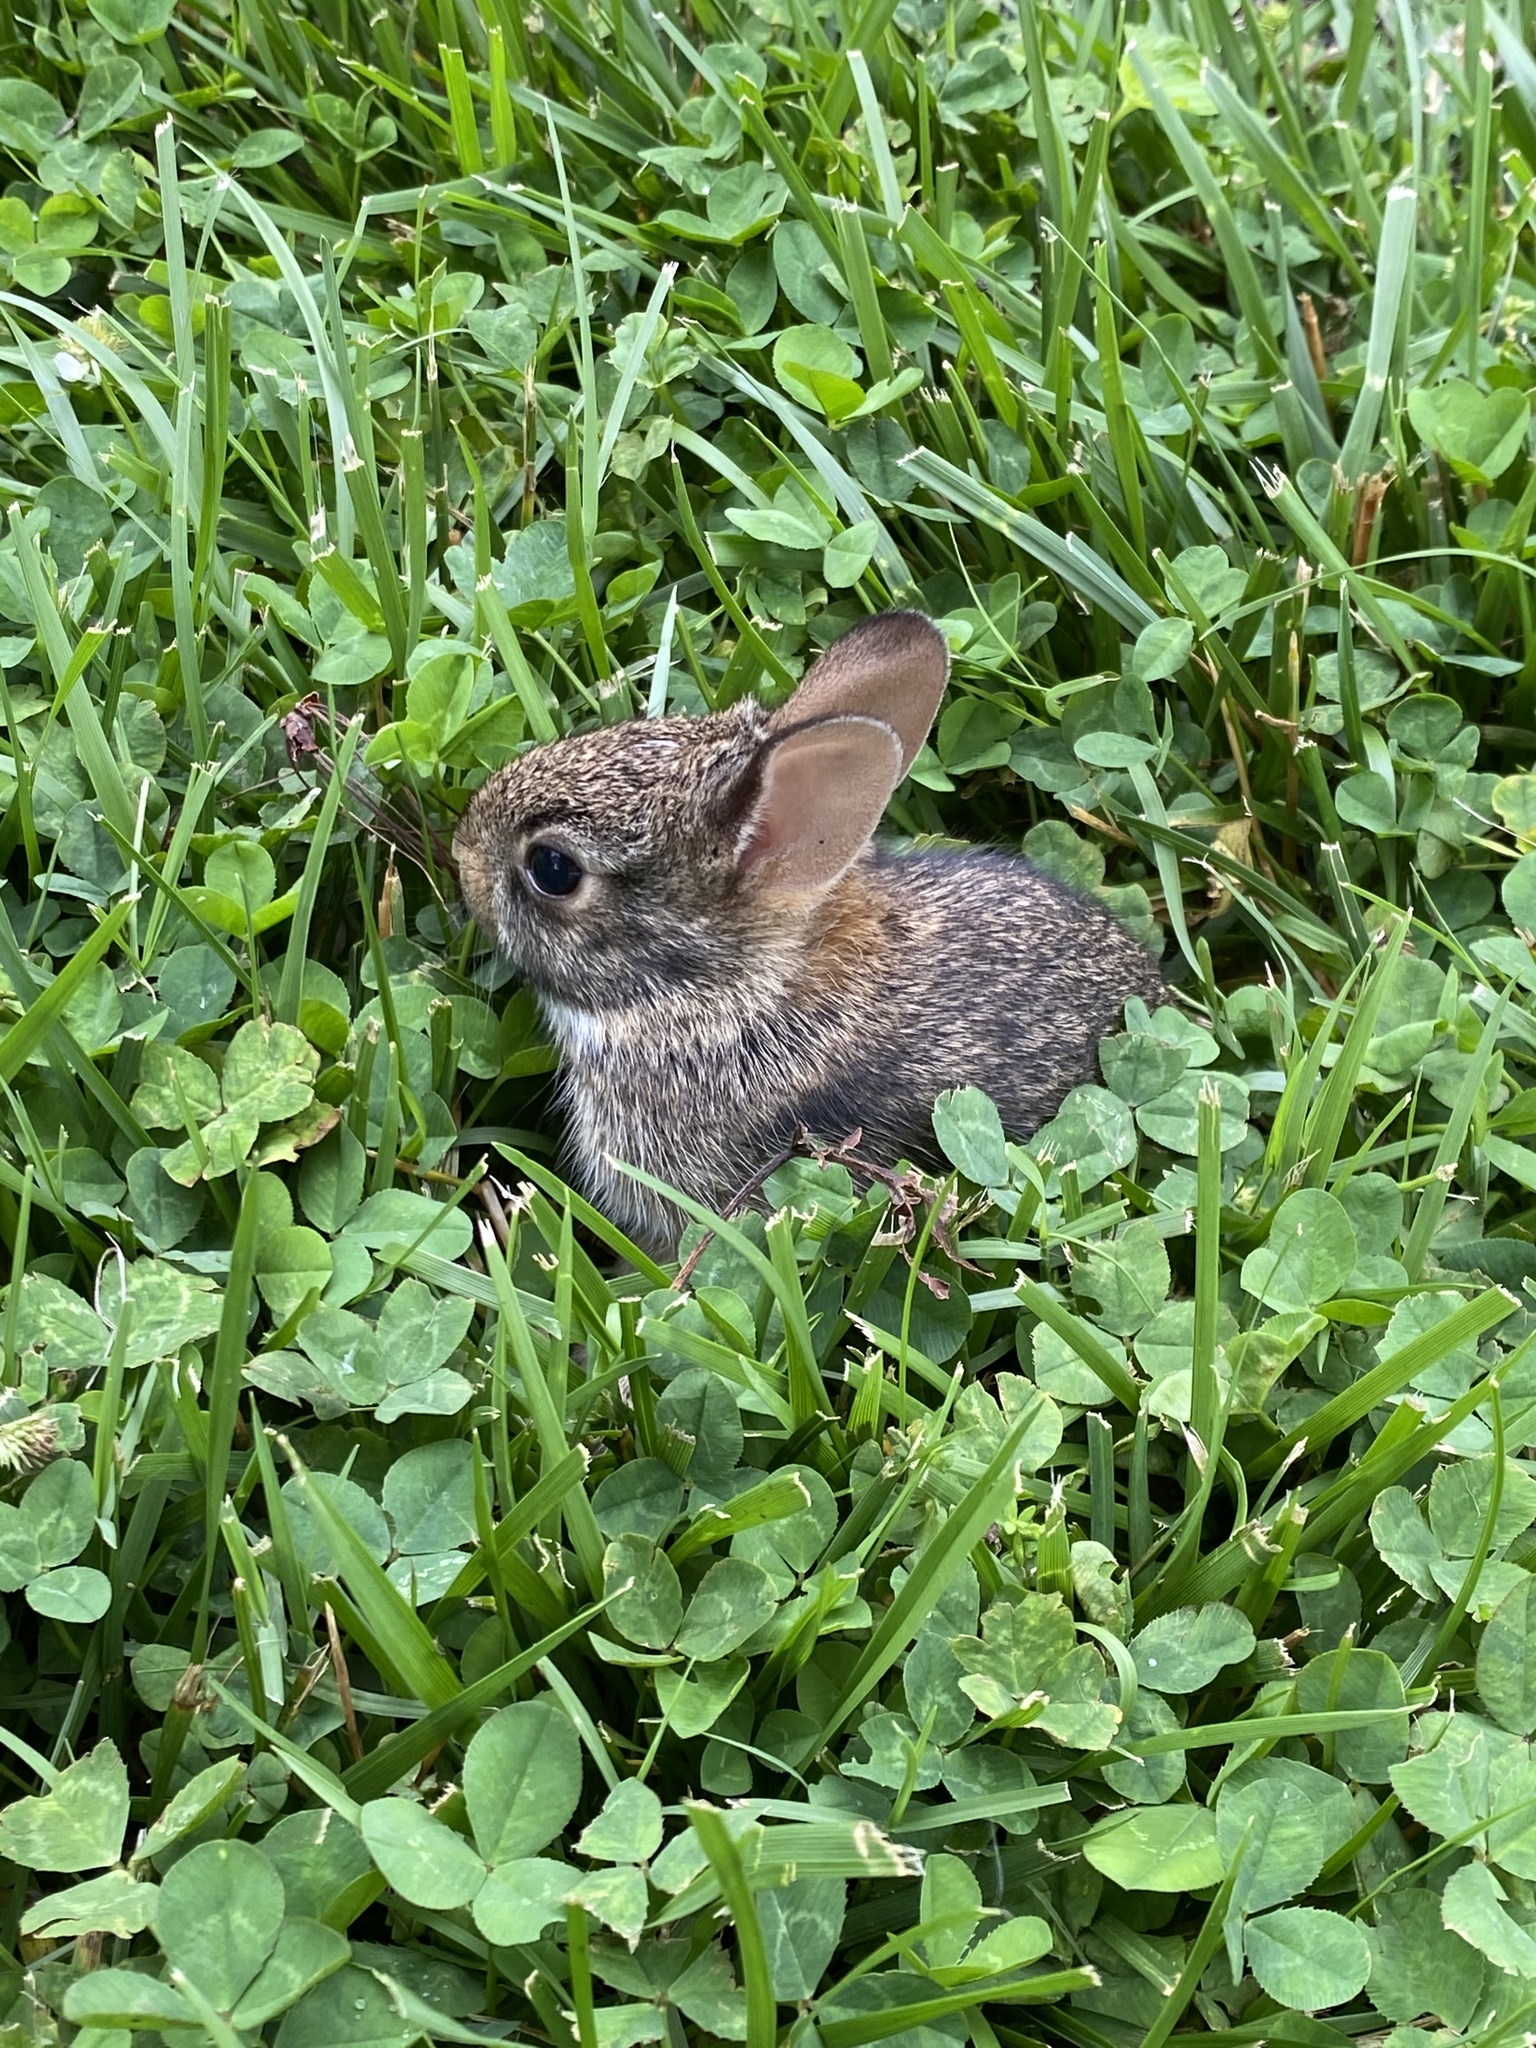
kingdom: Animalia
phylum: Chordata
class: Mammalia
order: Lagomorpha
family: Leporidae
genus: Sylvilagus
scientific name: Sylvilagus floridanus
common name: Eastern cottontail
